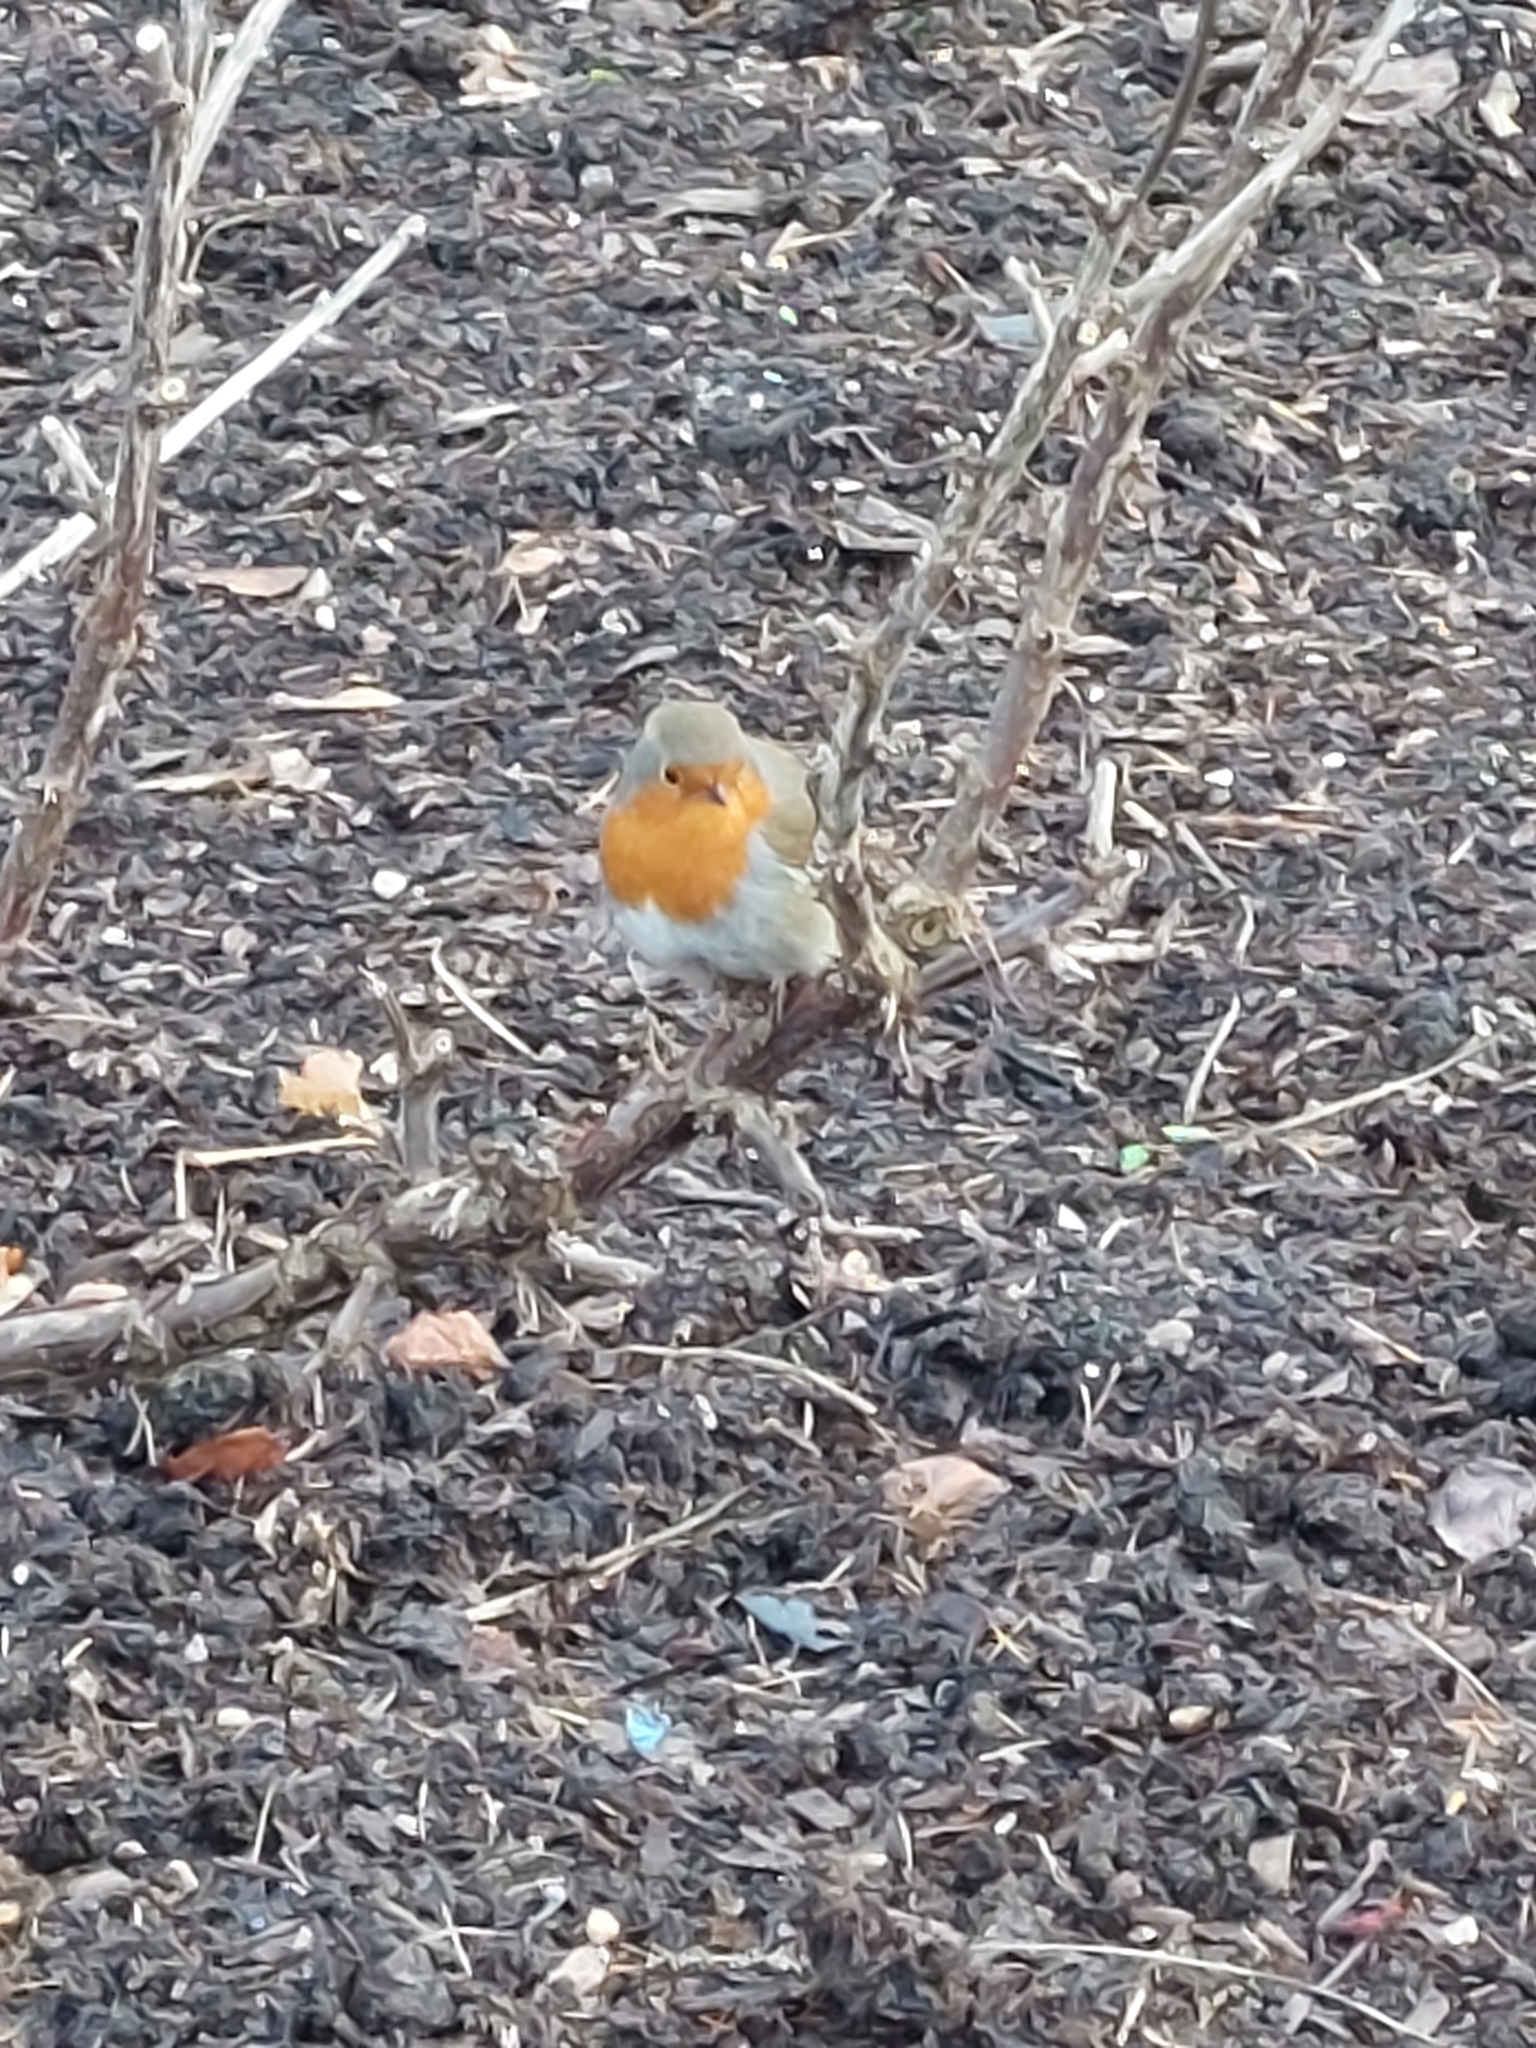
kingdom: Animalia
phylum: Chordata
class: Aves
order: Passeriformes
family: Muscicapidae
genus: Erithacus
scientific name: Erithacus rubecula
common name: European robin
